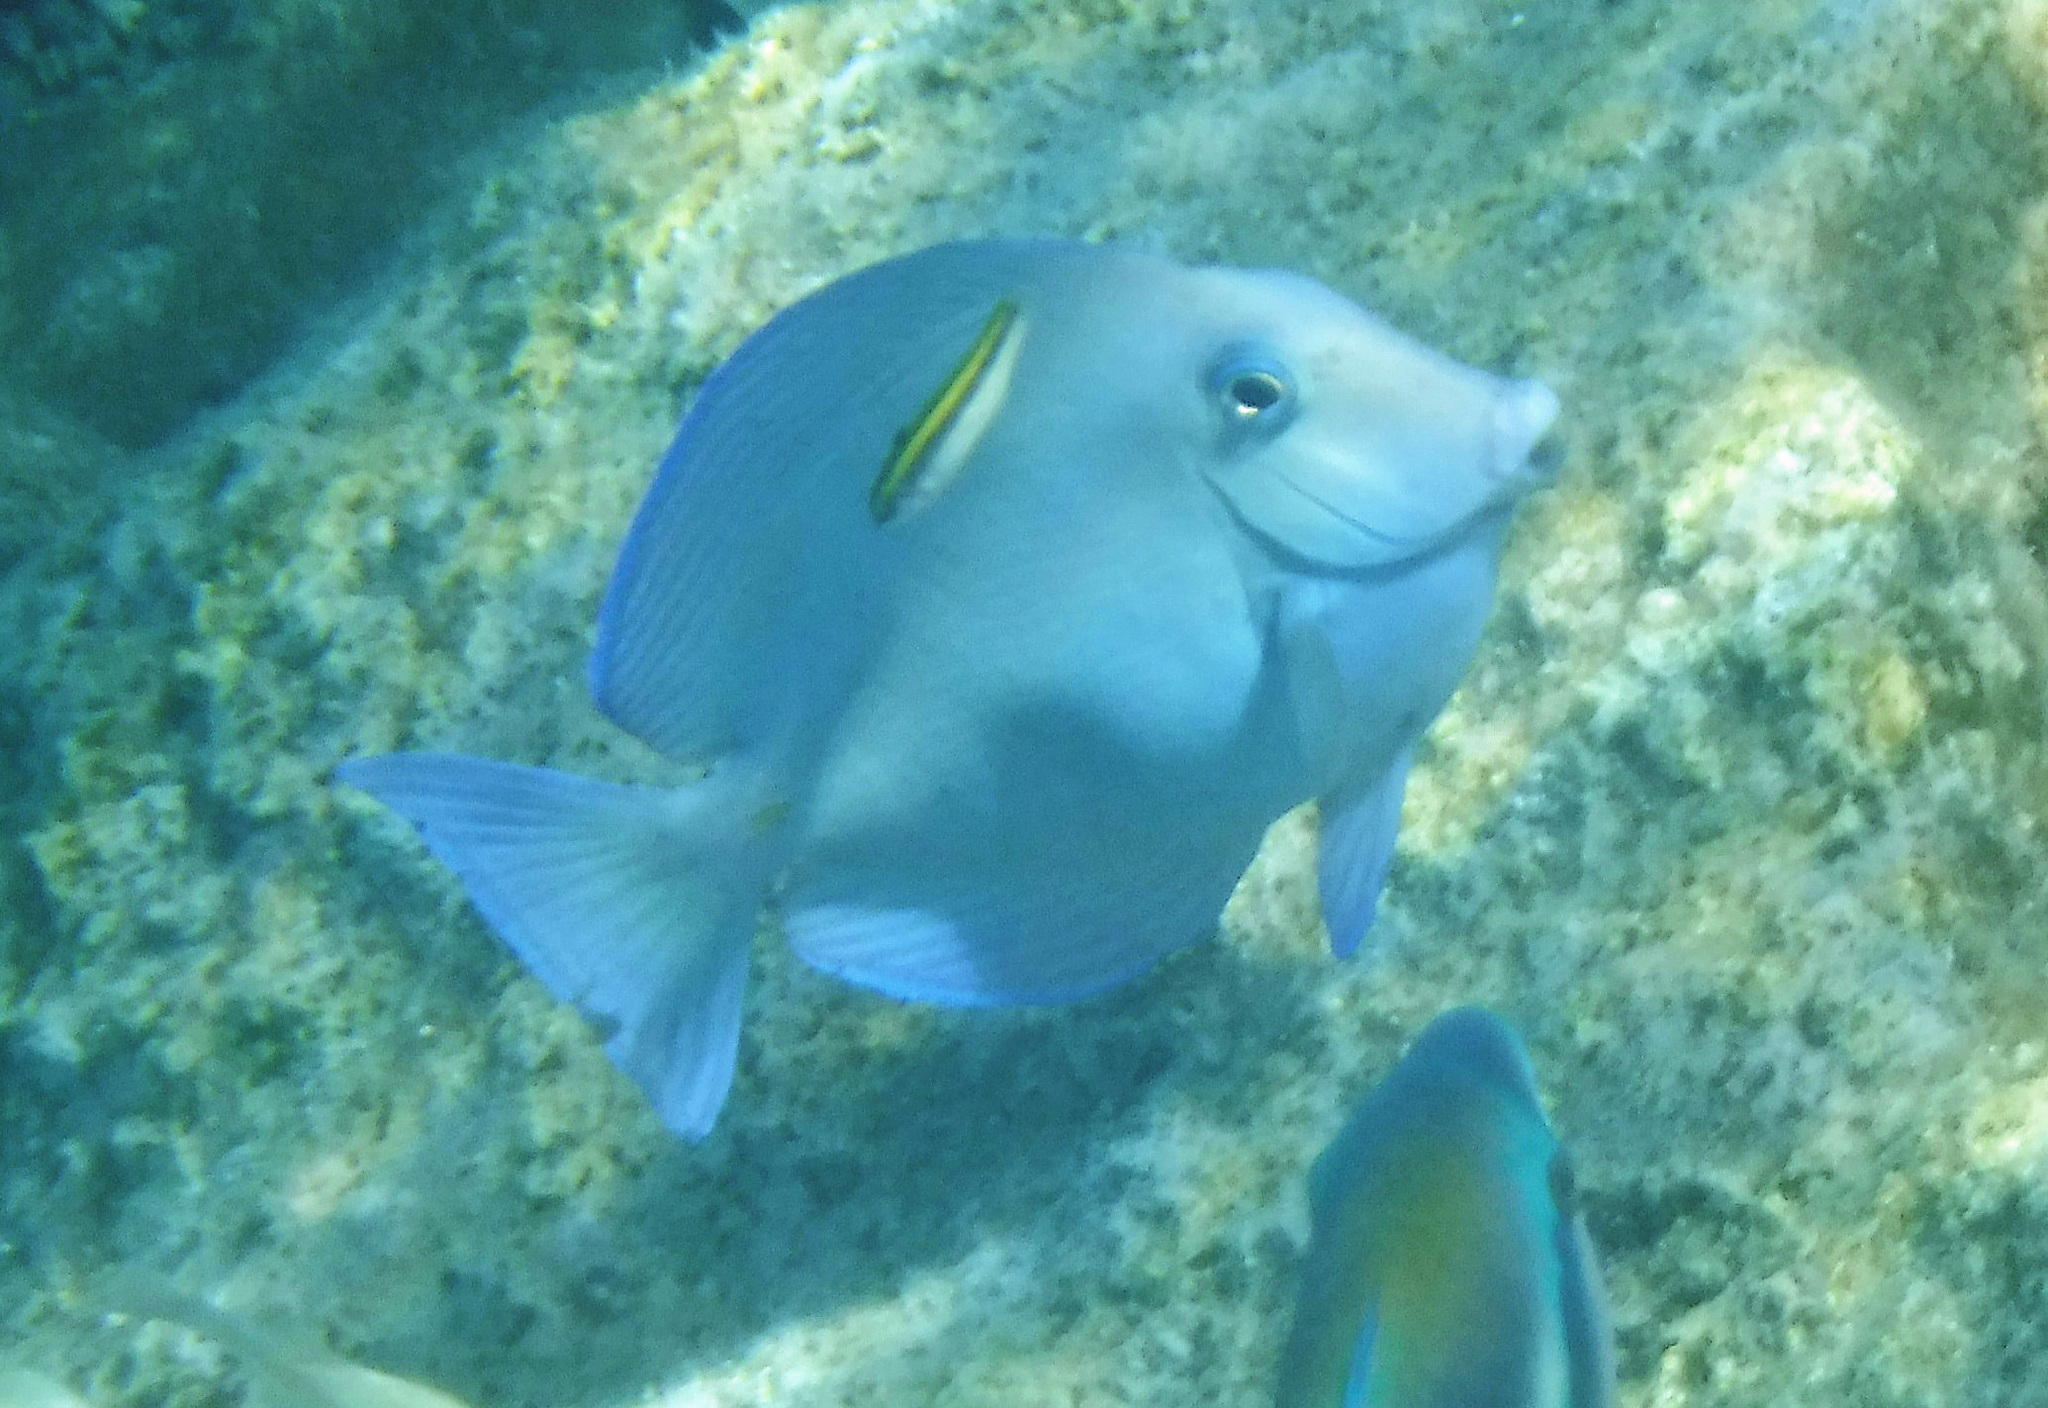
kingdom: Animalia
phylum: Chordata
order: Perciformes
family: Labridae
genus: Thalassoma
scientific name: Thalassoma bifasciatum
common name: Bluehead wrasse
